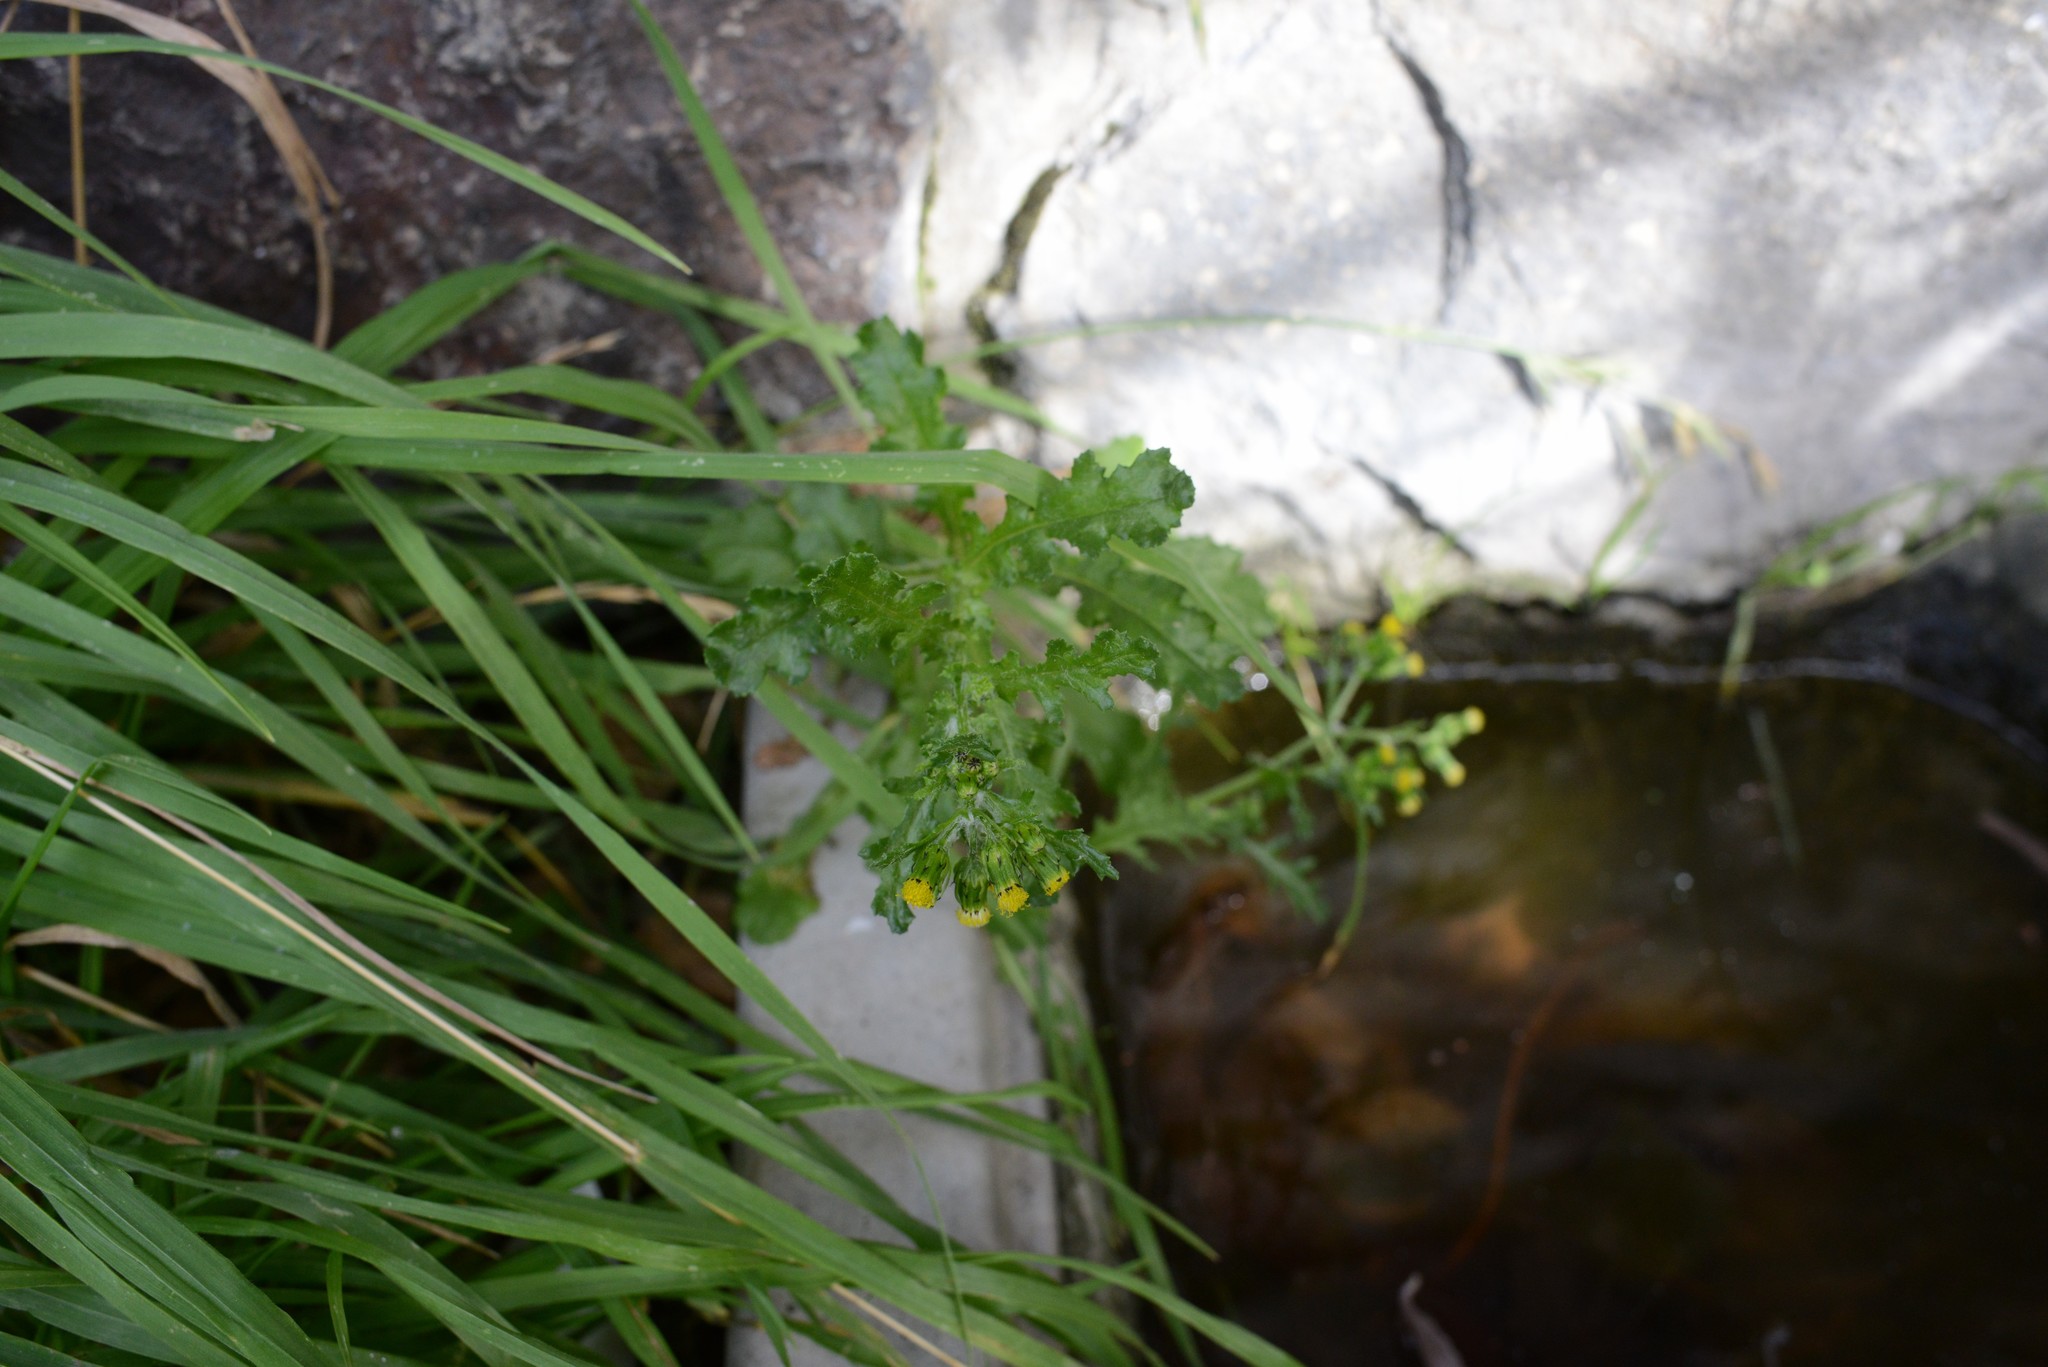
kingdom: Plantae
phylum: Tracheophyta
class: Magnoliopsida
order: Asterales
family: Asteraceae
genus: Senecio
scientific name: Senecio vulgaris
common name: Old-man-in-the-spring
